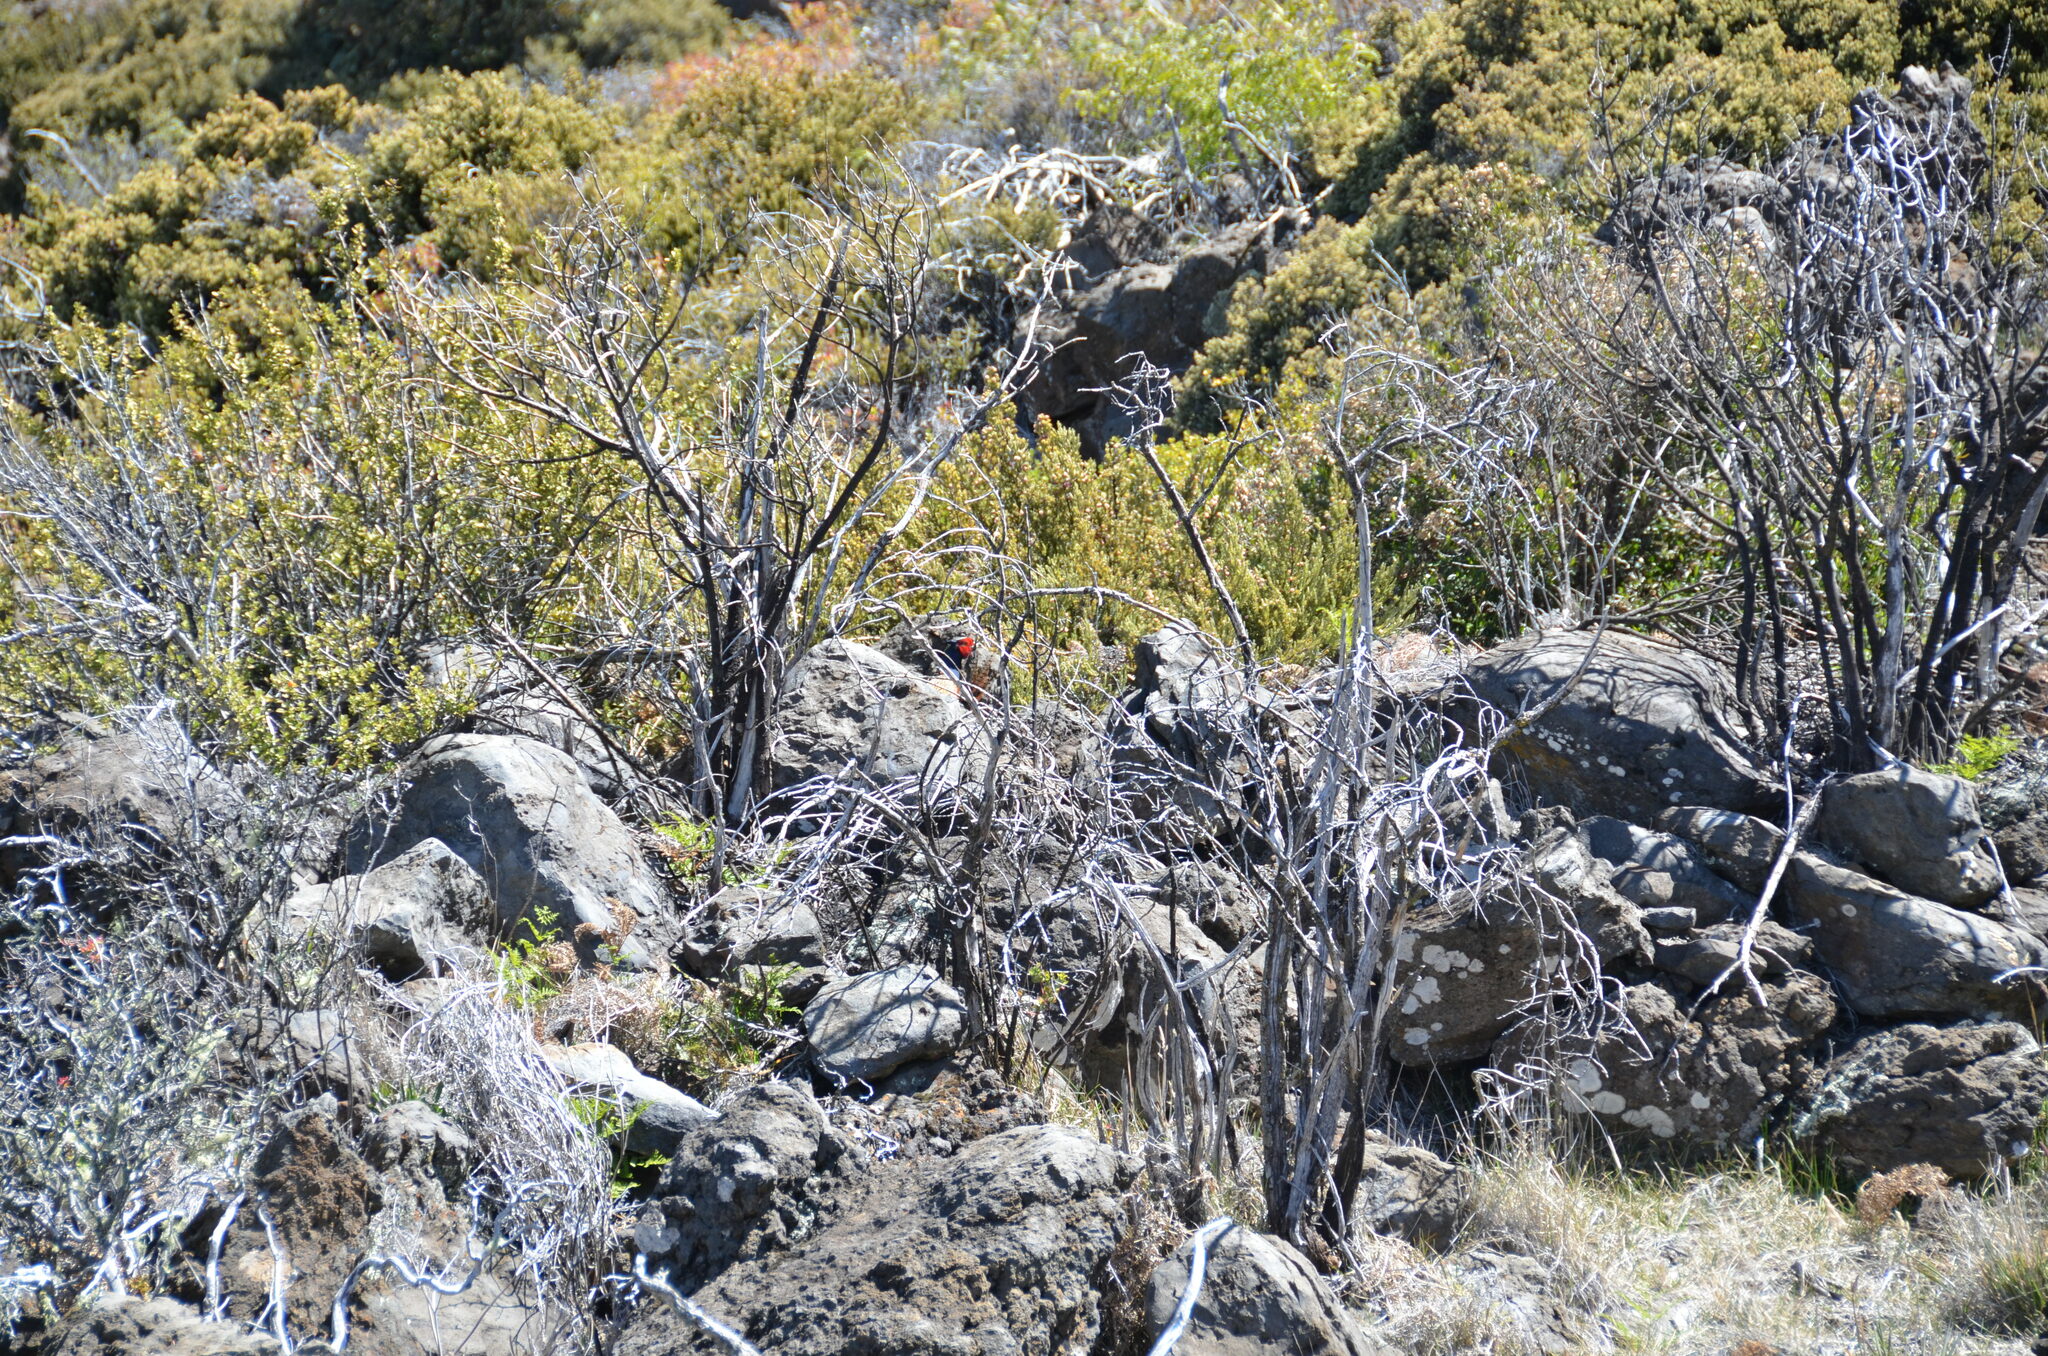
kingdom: Animalia
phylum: Chordata
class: Aves
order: Galliformes
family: Phasianidae
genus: Phasianus
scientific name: Phasianus colchicus
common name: Common pheasant
